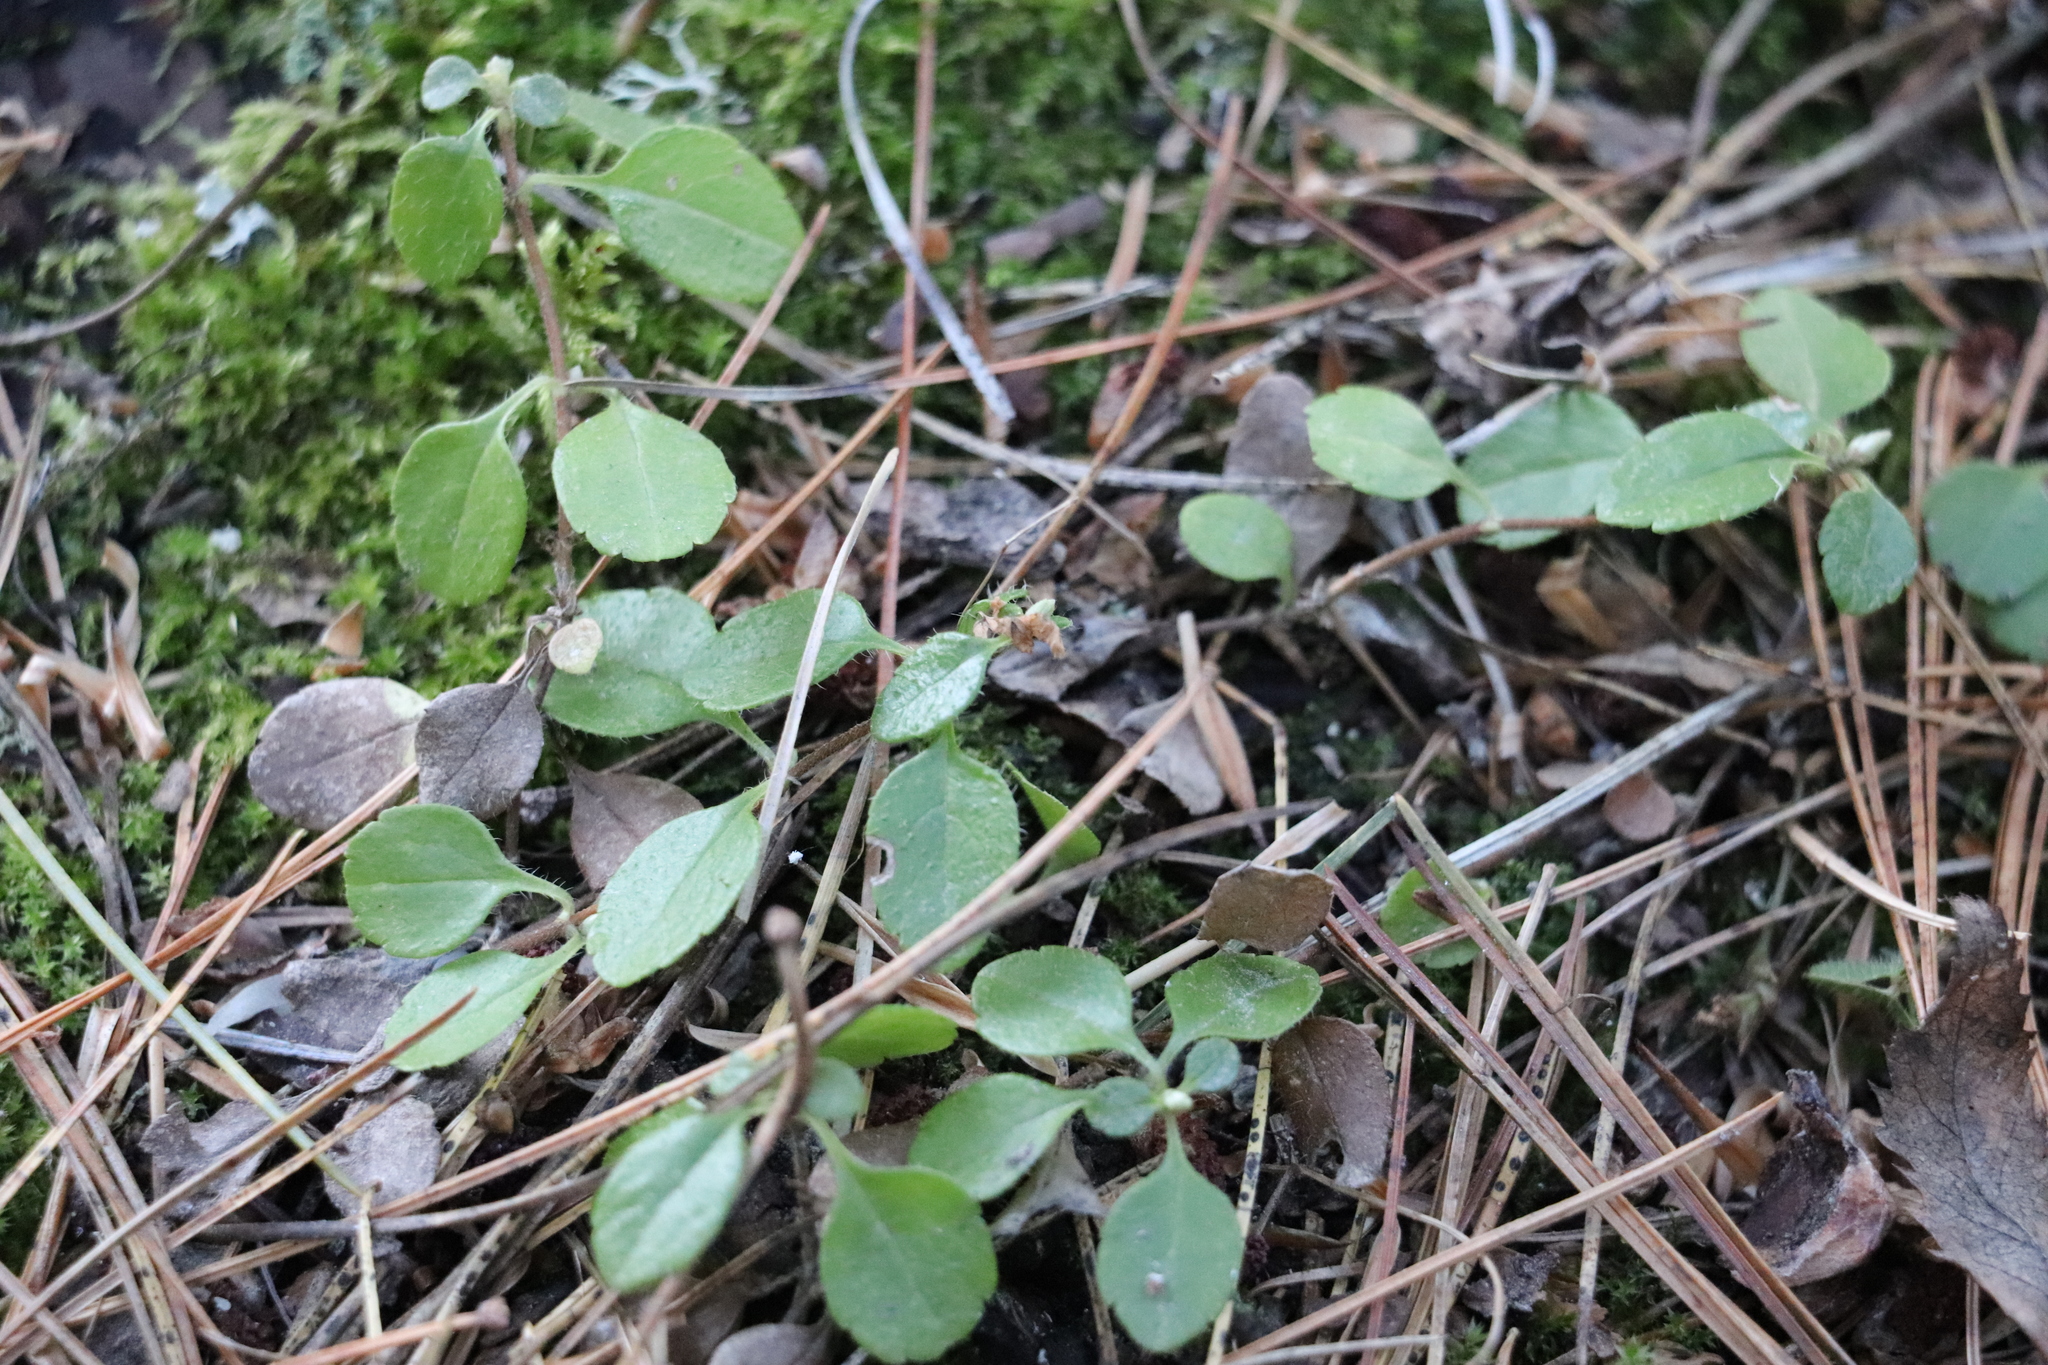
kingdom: Plantae
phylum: Tracheophyta
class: Magnoliopsida
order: Dipsacales
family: Caprifoliaceae
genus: Linnaea
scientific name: Linnaea borealis
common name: Twinflower
